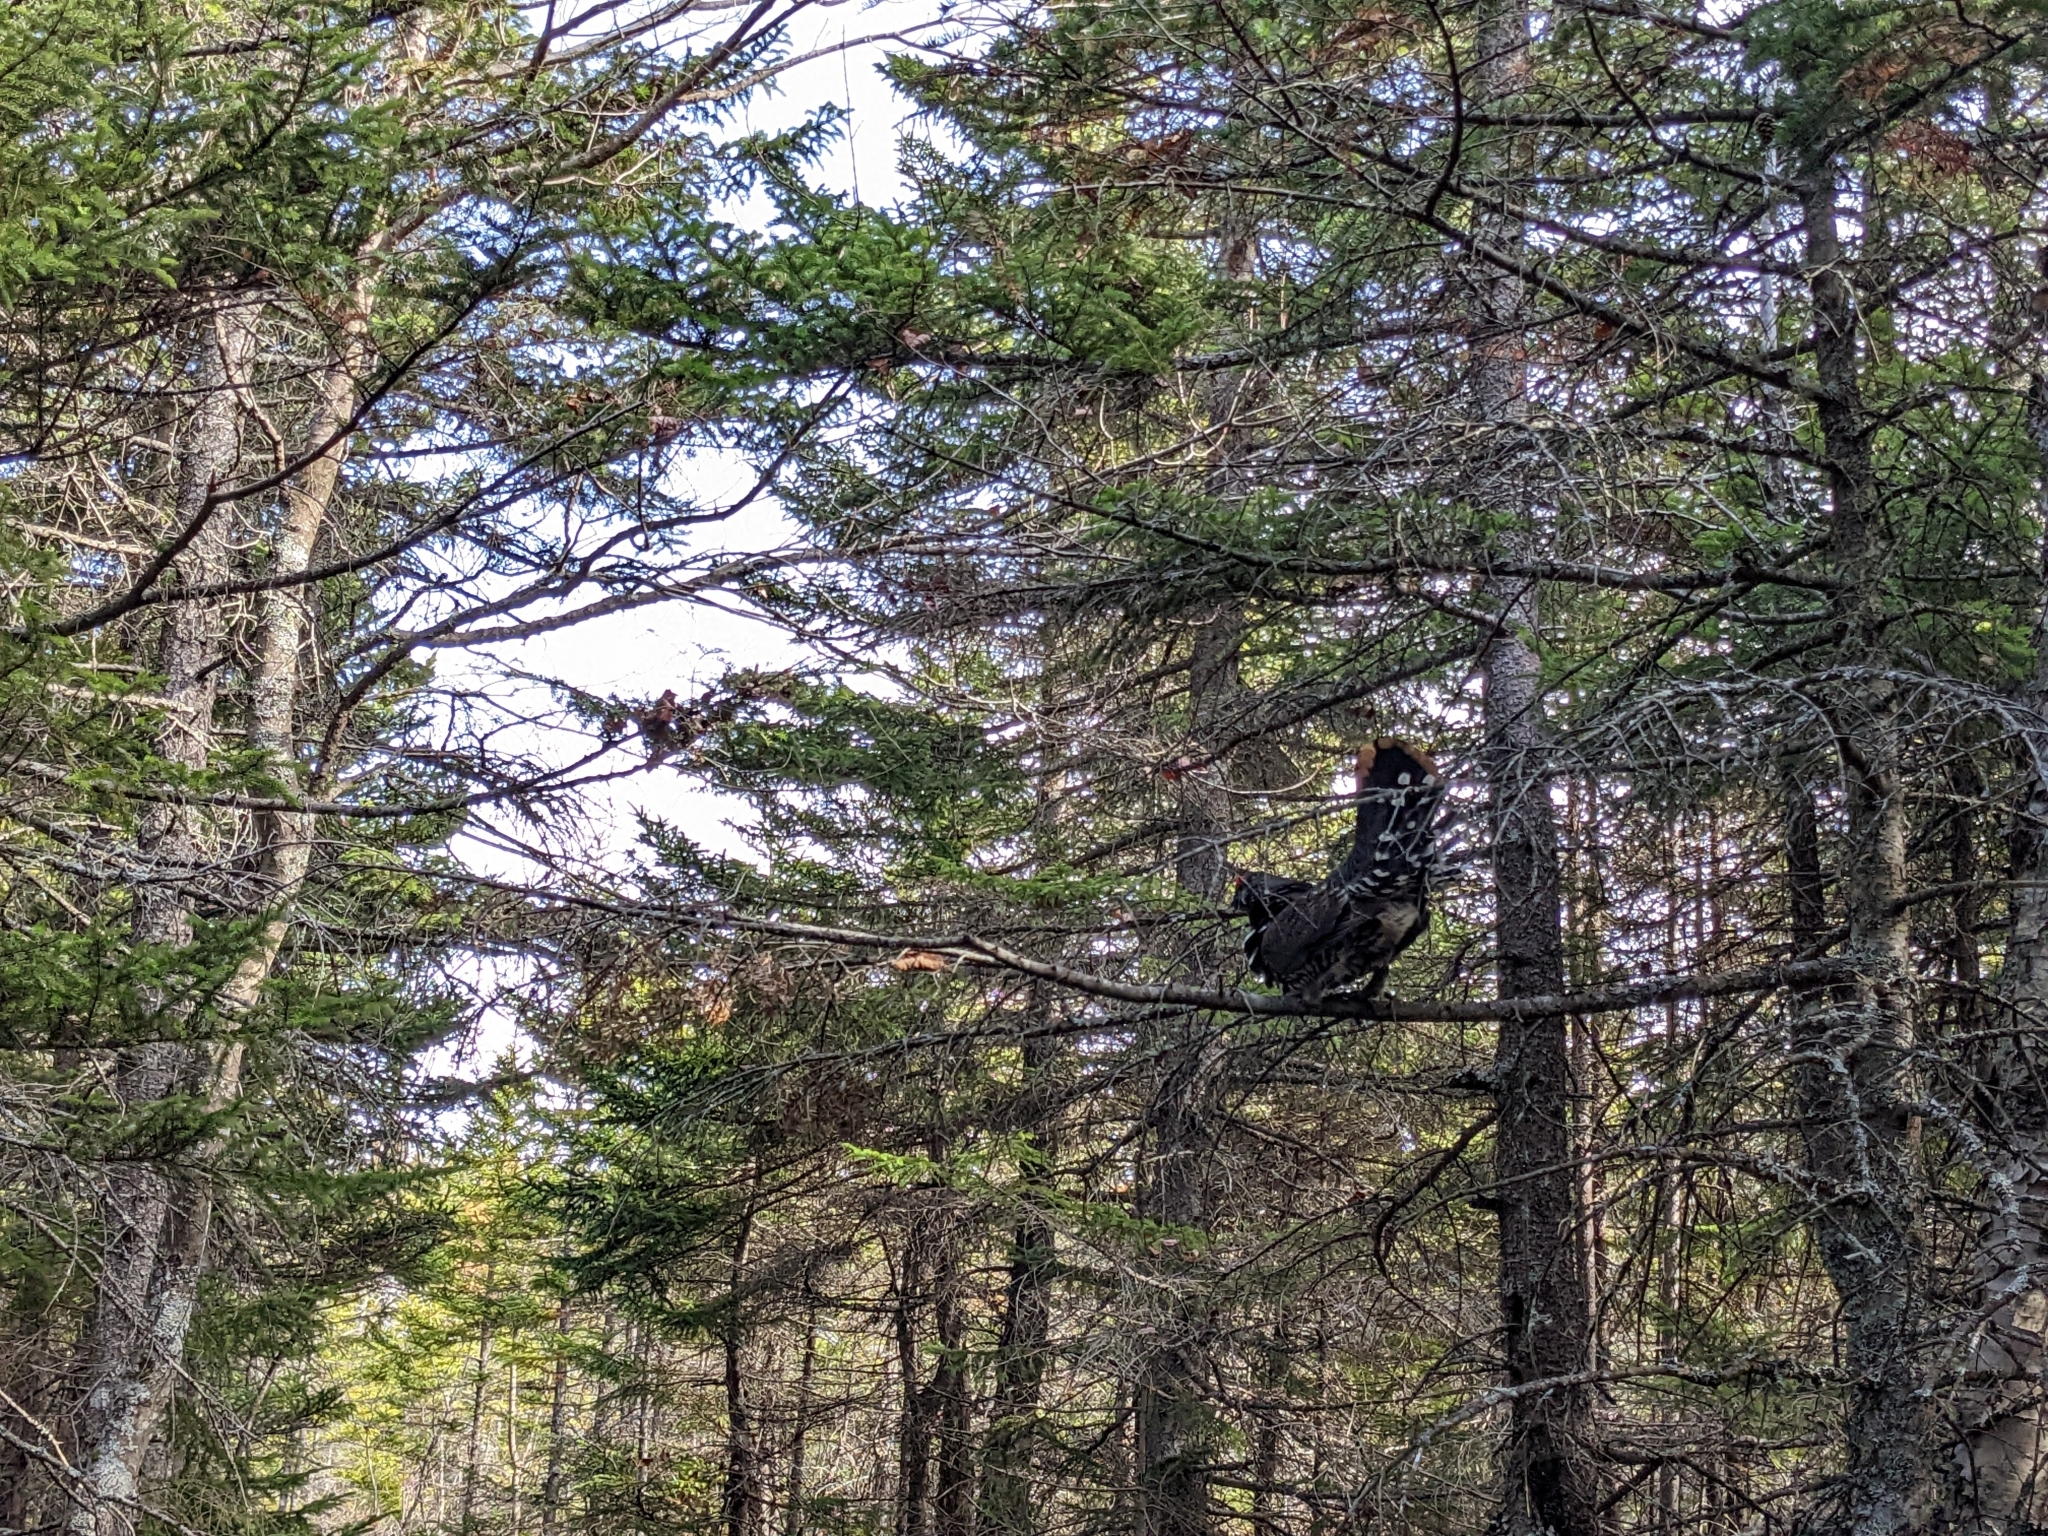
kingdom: Animalia
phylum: Chordata
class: Aves
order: Galliformes
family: Phasianidae
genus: Canachites
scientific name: Canachites canadensis
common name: Spruce grouse
